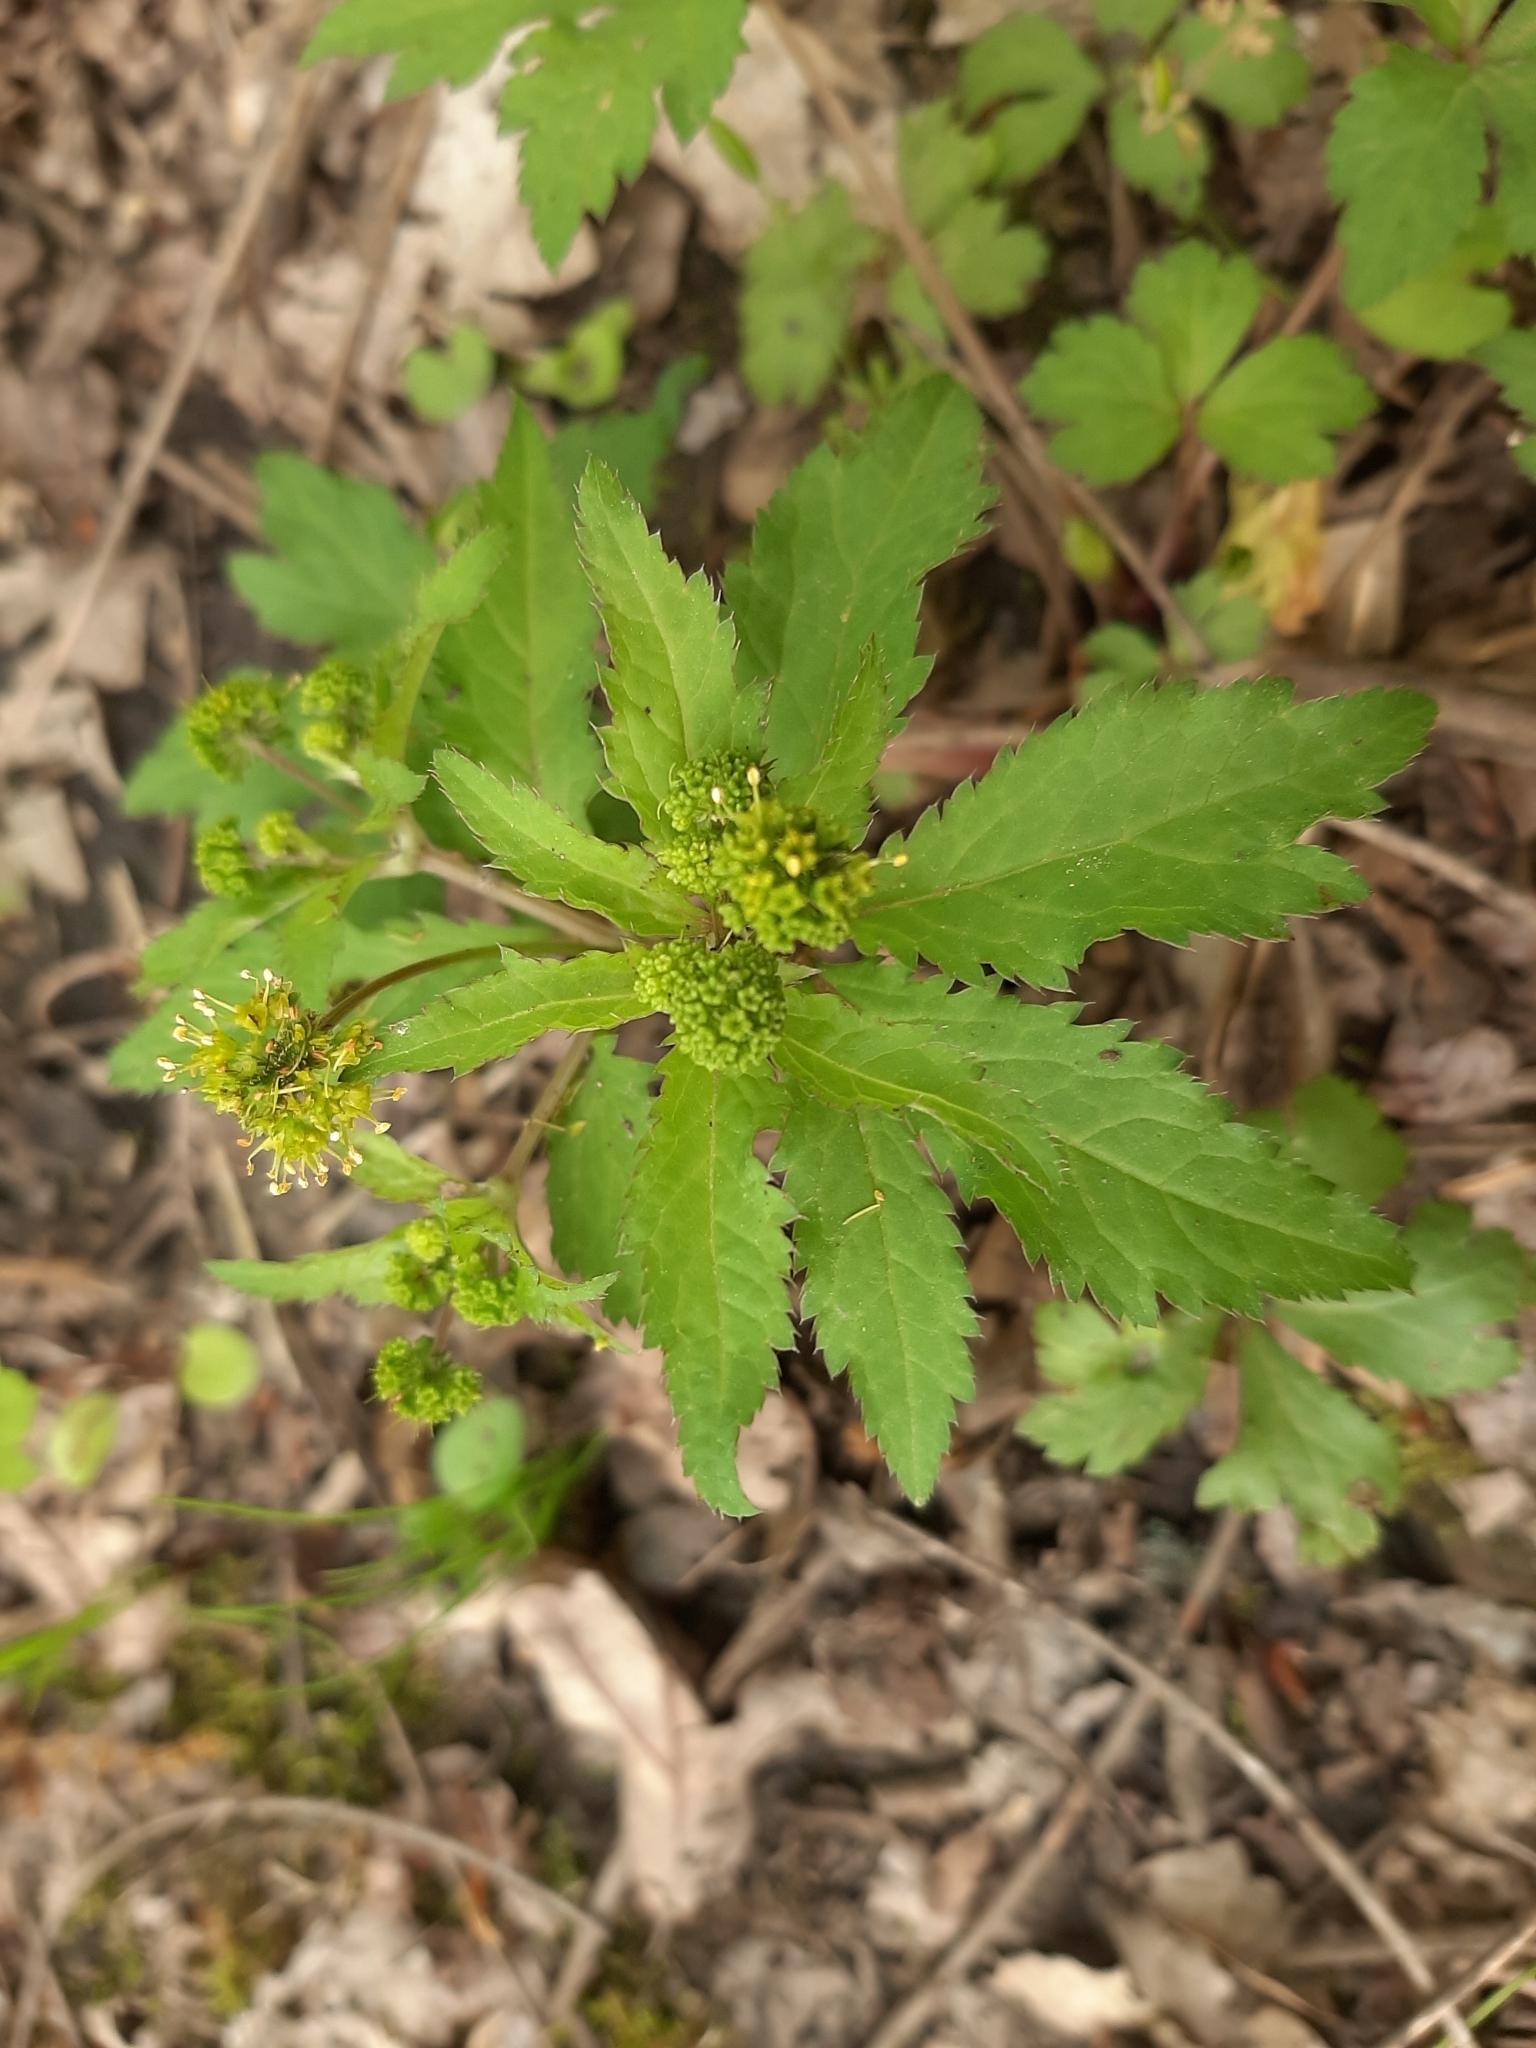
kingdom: Plantae
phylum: Tracheophyta
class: Magnoliopsida
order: Apiales
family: Apiaceae
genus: Sanicula
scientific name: Sanicula odorata
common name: Cluster sanicle
